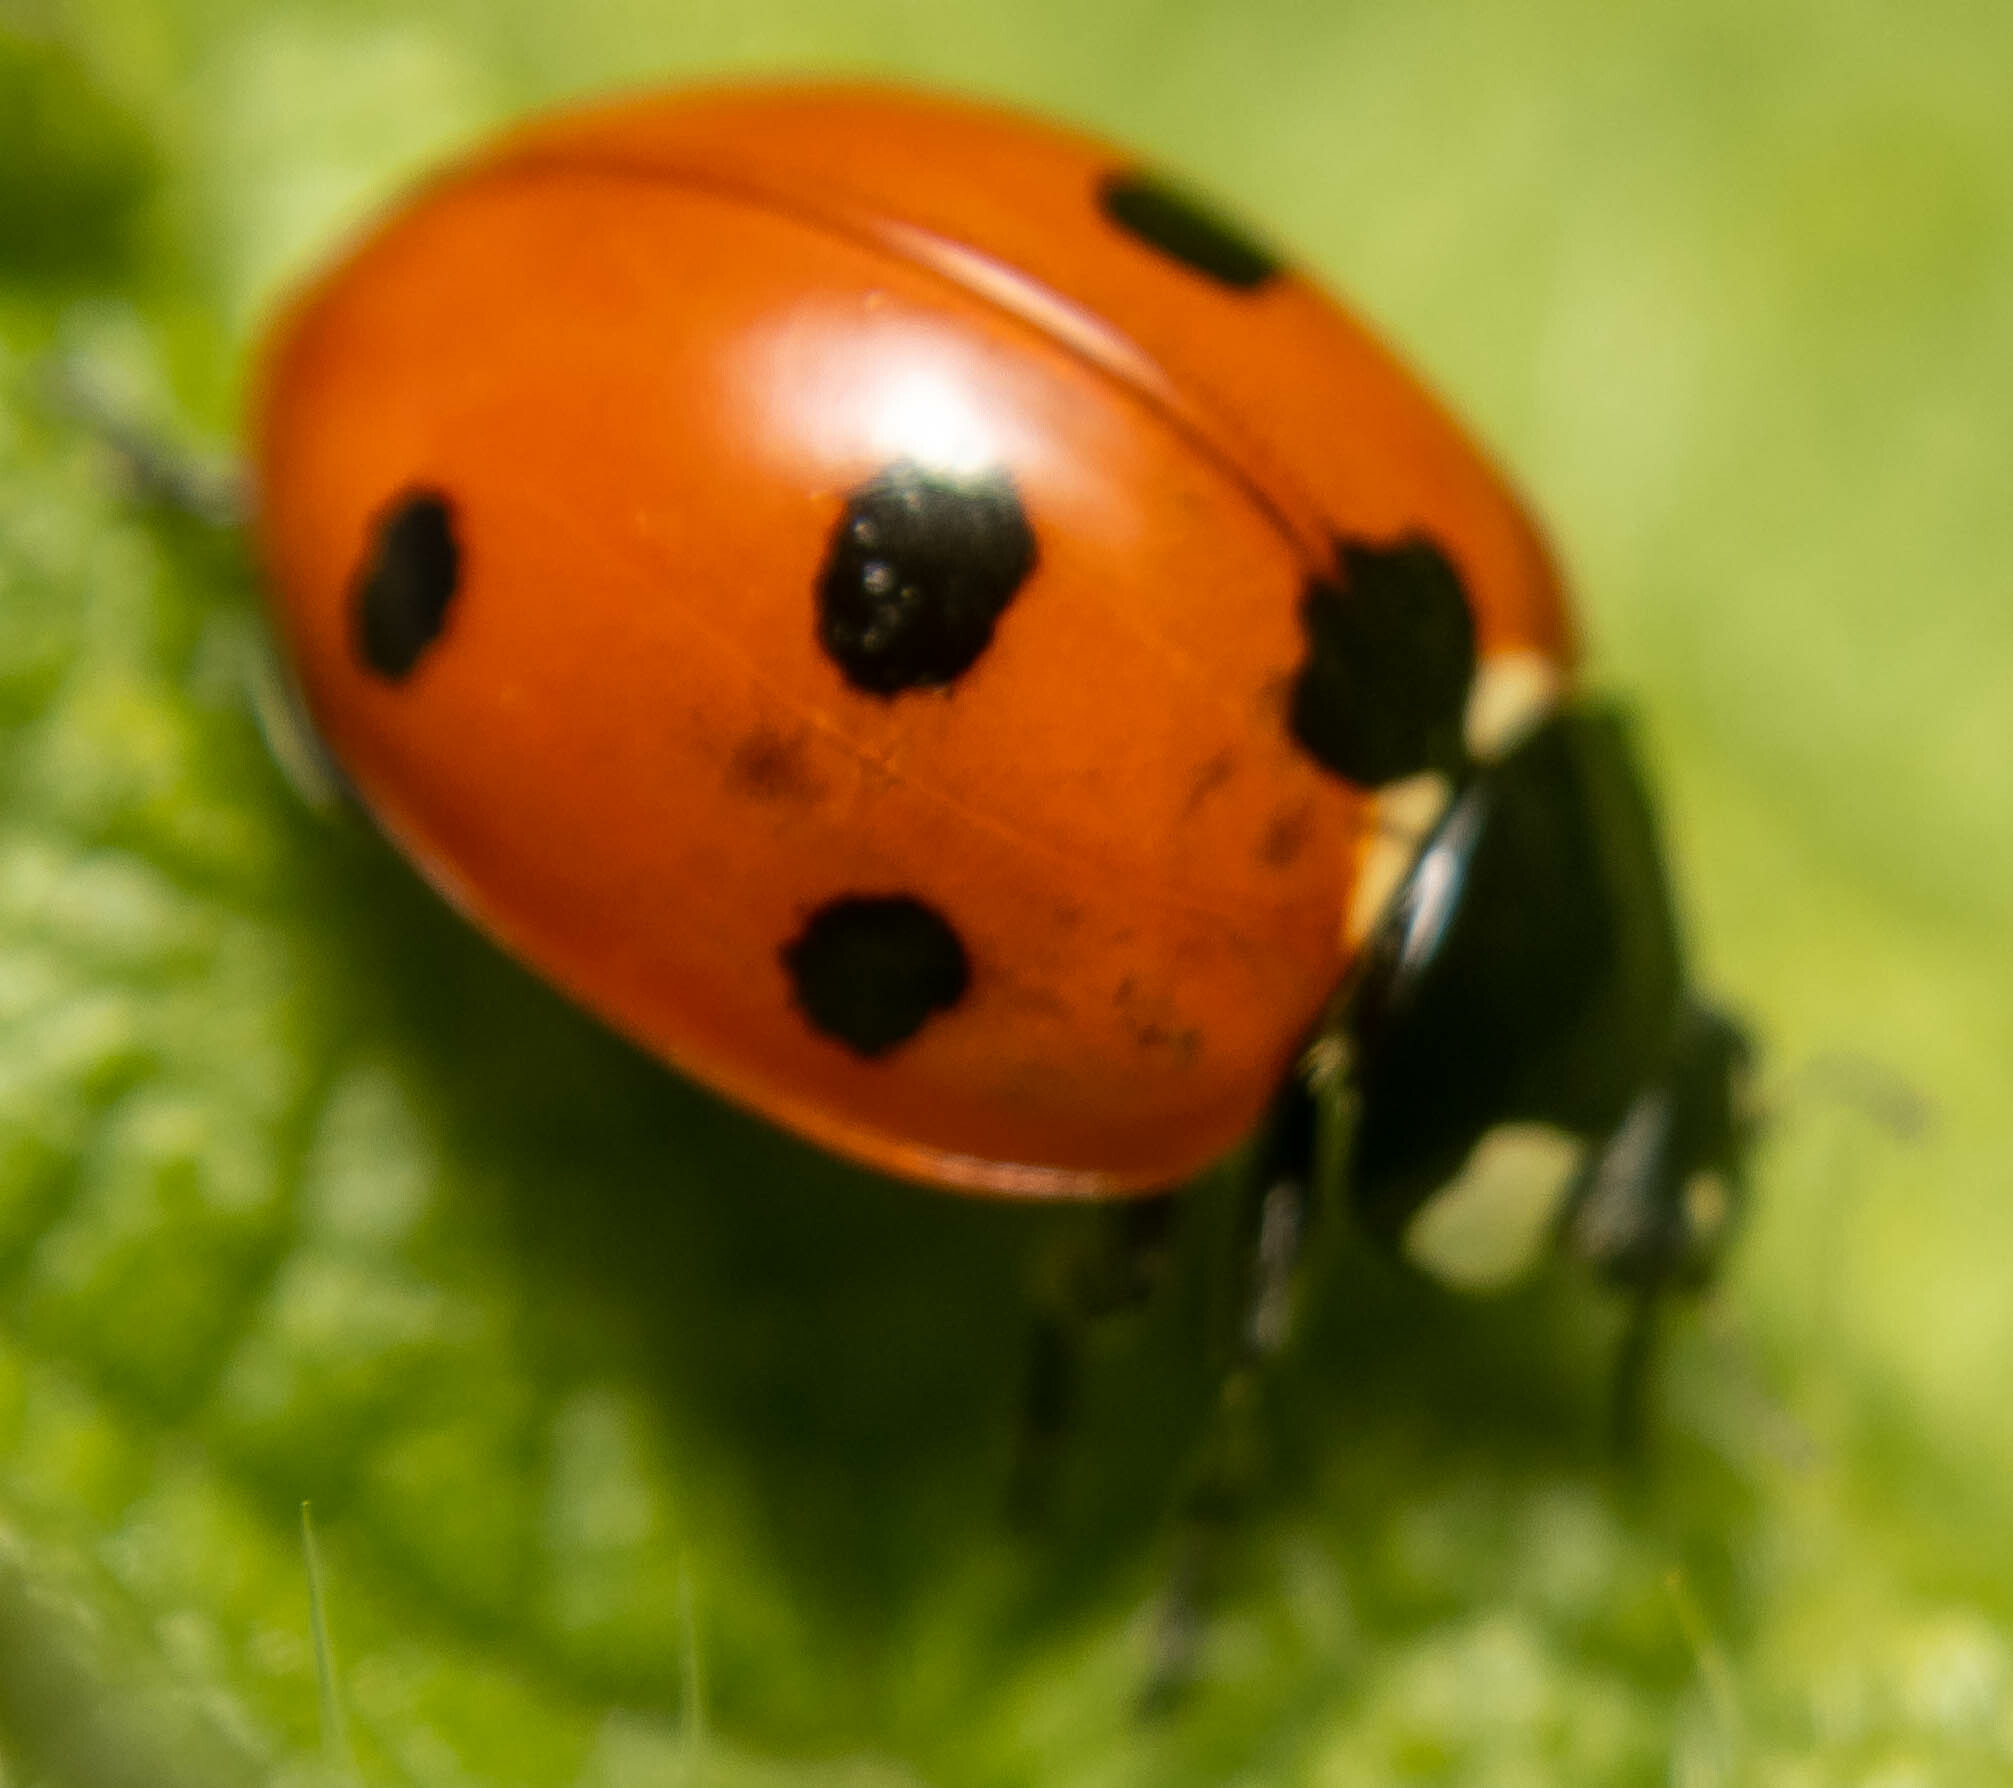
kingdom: Animalia
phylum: Arthropoda
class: Insecta
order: Coleoptera
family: Coccinellidae
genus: Coccinella
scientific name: Coccinella septempunctata
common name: Sevenspotted lady beetle
